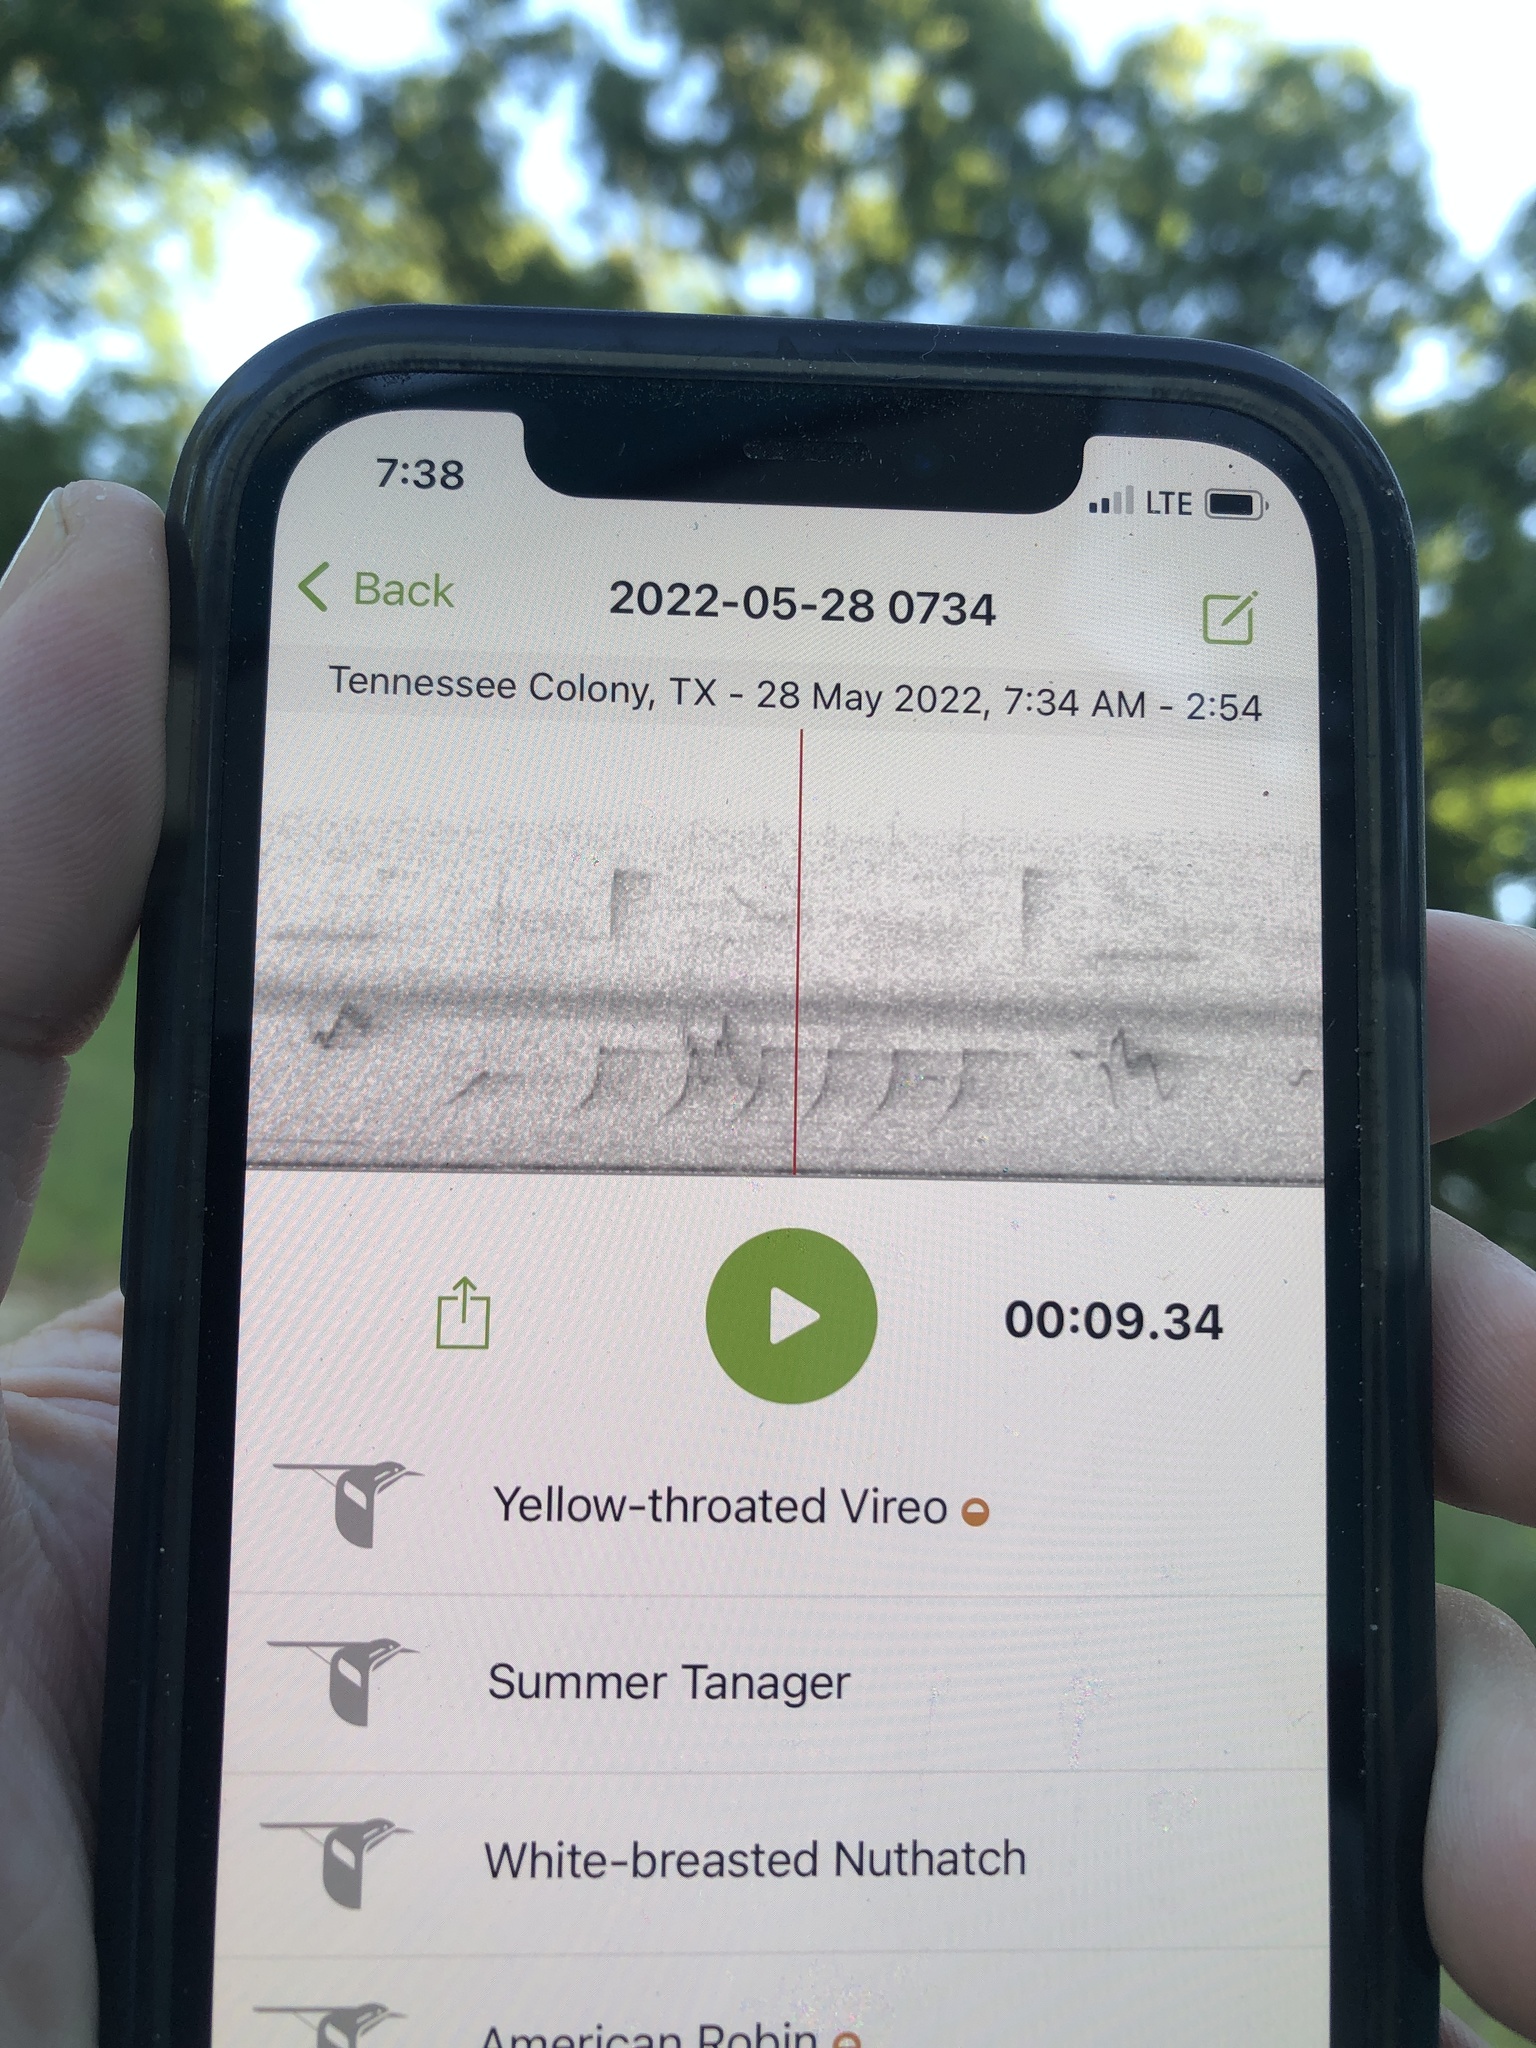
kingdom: Animalia
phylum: Chordata
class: Aves
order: Passeriformes
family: Vireonidae
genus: Vireo
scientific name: Vireo flavifrons
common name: Yellow-throated vireo
